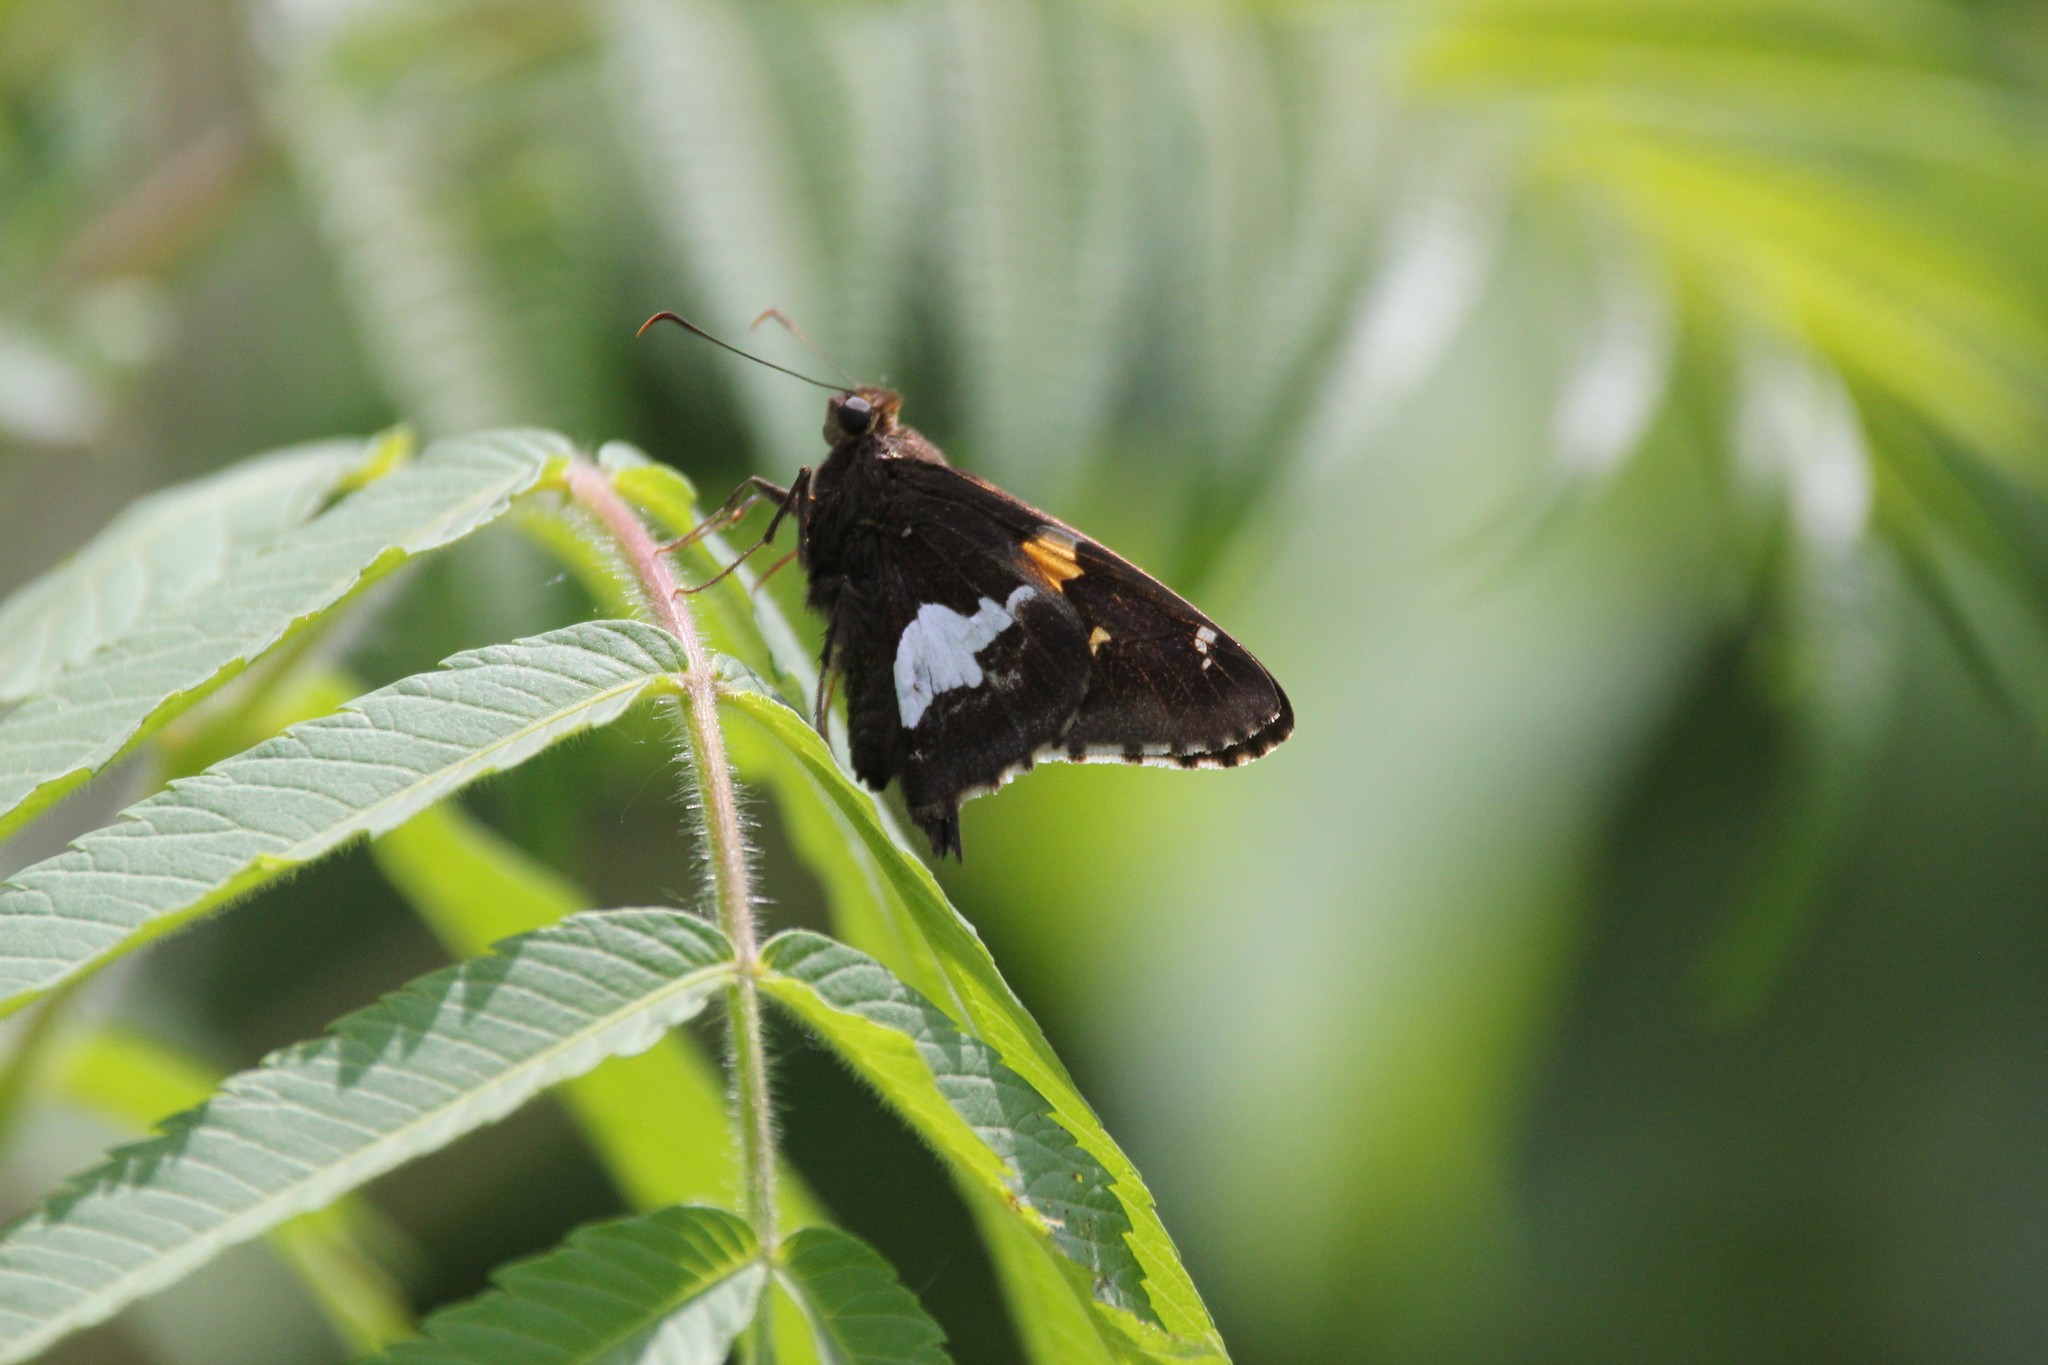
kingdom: Animalia
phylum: Arthropoda
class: Insecta
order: Lepidoptera
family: Hesperiidae
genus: Epargyreus
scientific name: Epargyreus clarus
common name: Silver-spotted skipper
